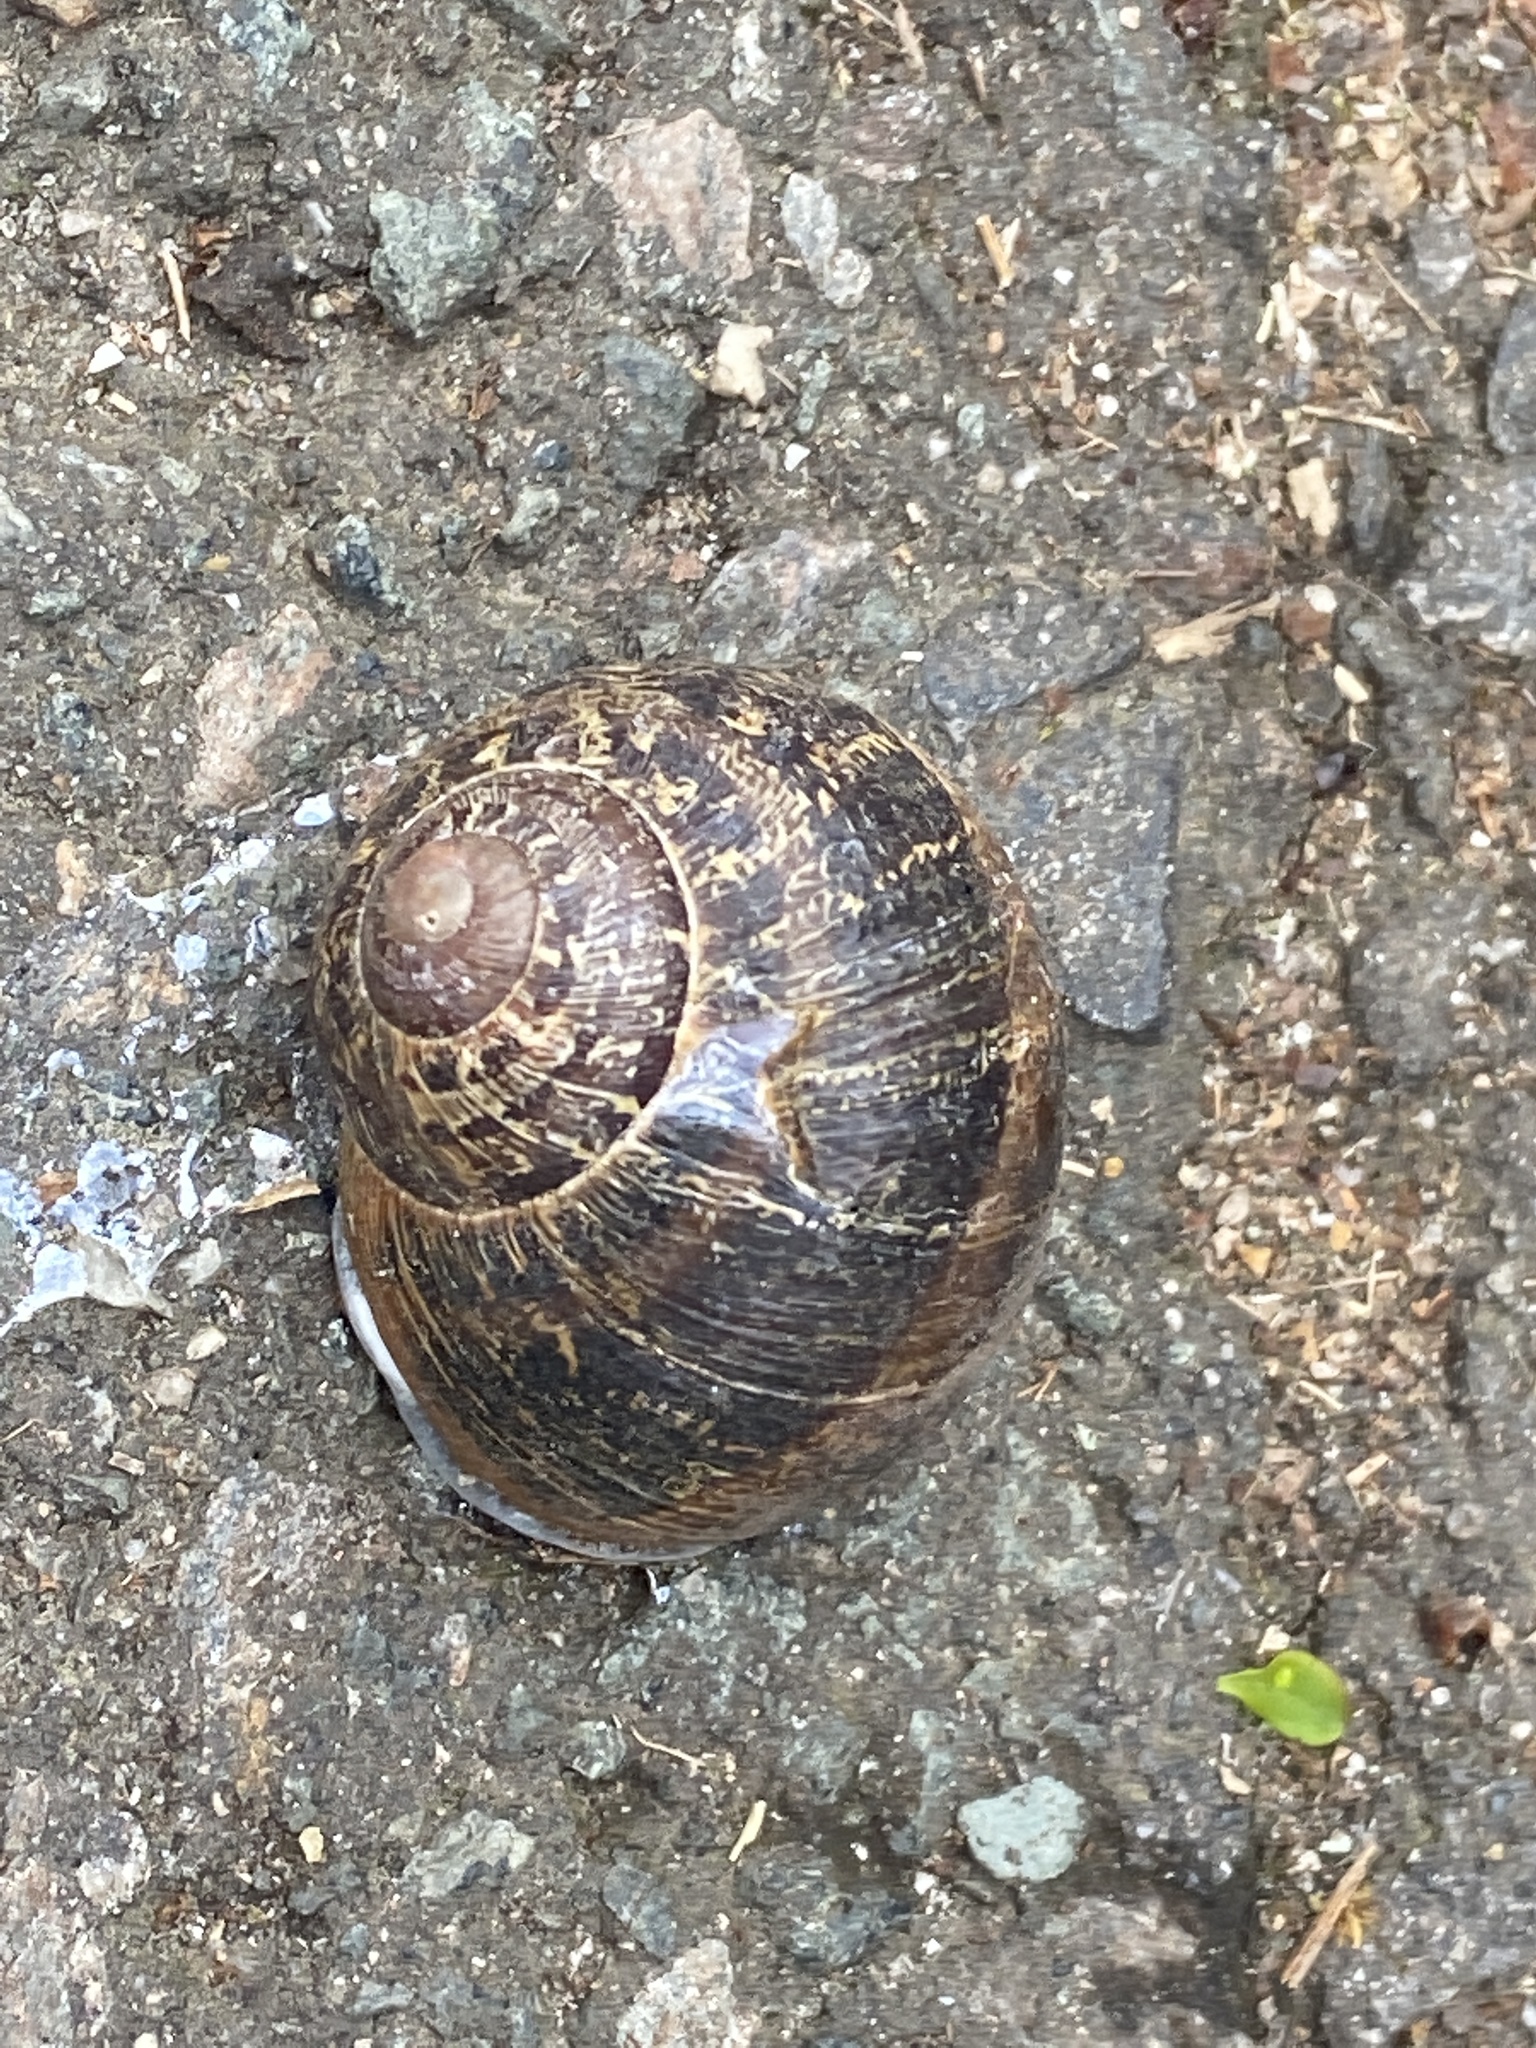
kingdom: Animalia
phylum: Mollusca
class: Gastropoda
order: Stylommatophora
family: Helicidae
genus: Cornu
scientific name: Cornu aspersum
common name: Brown garden snail
